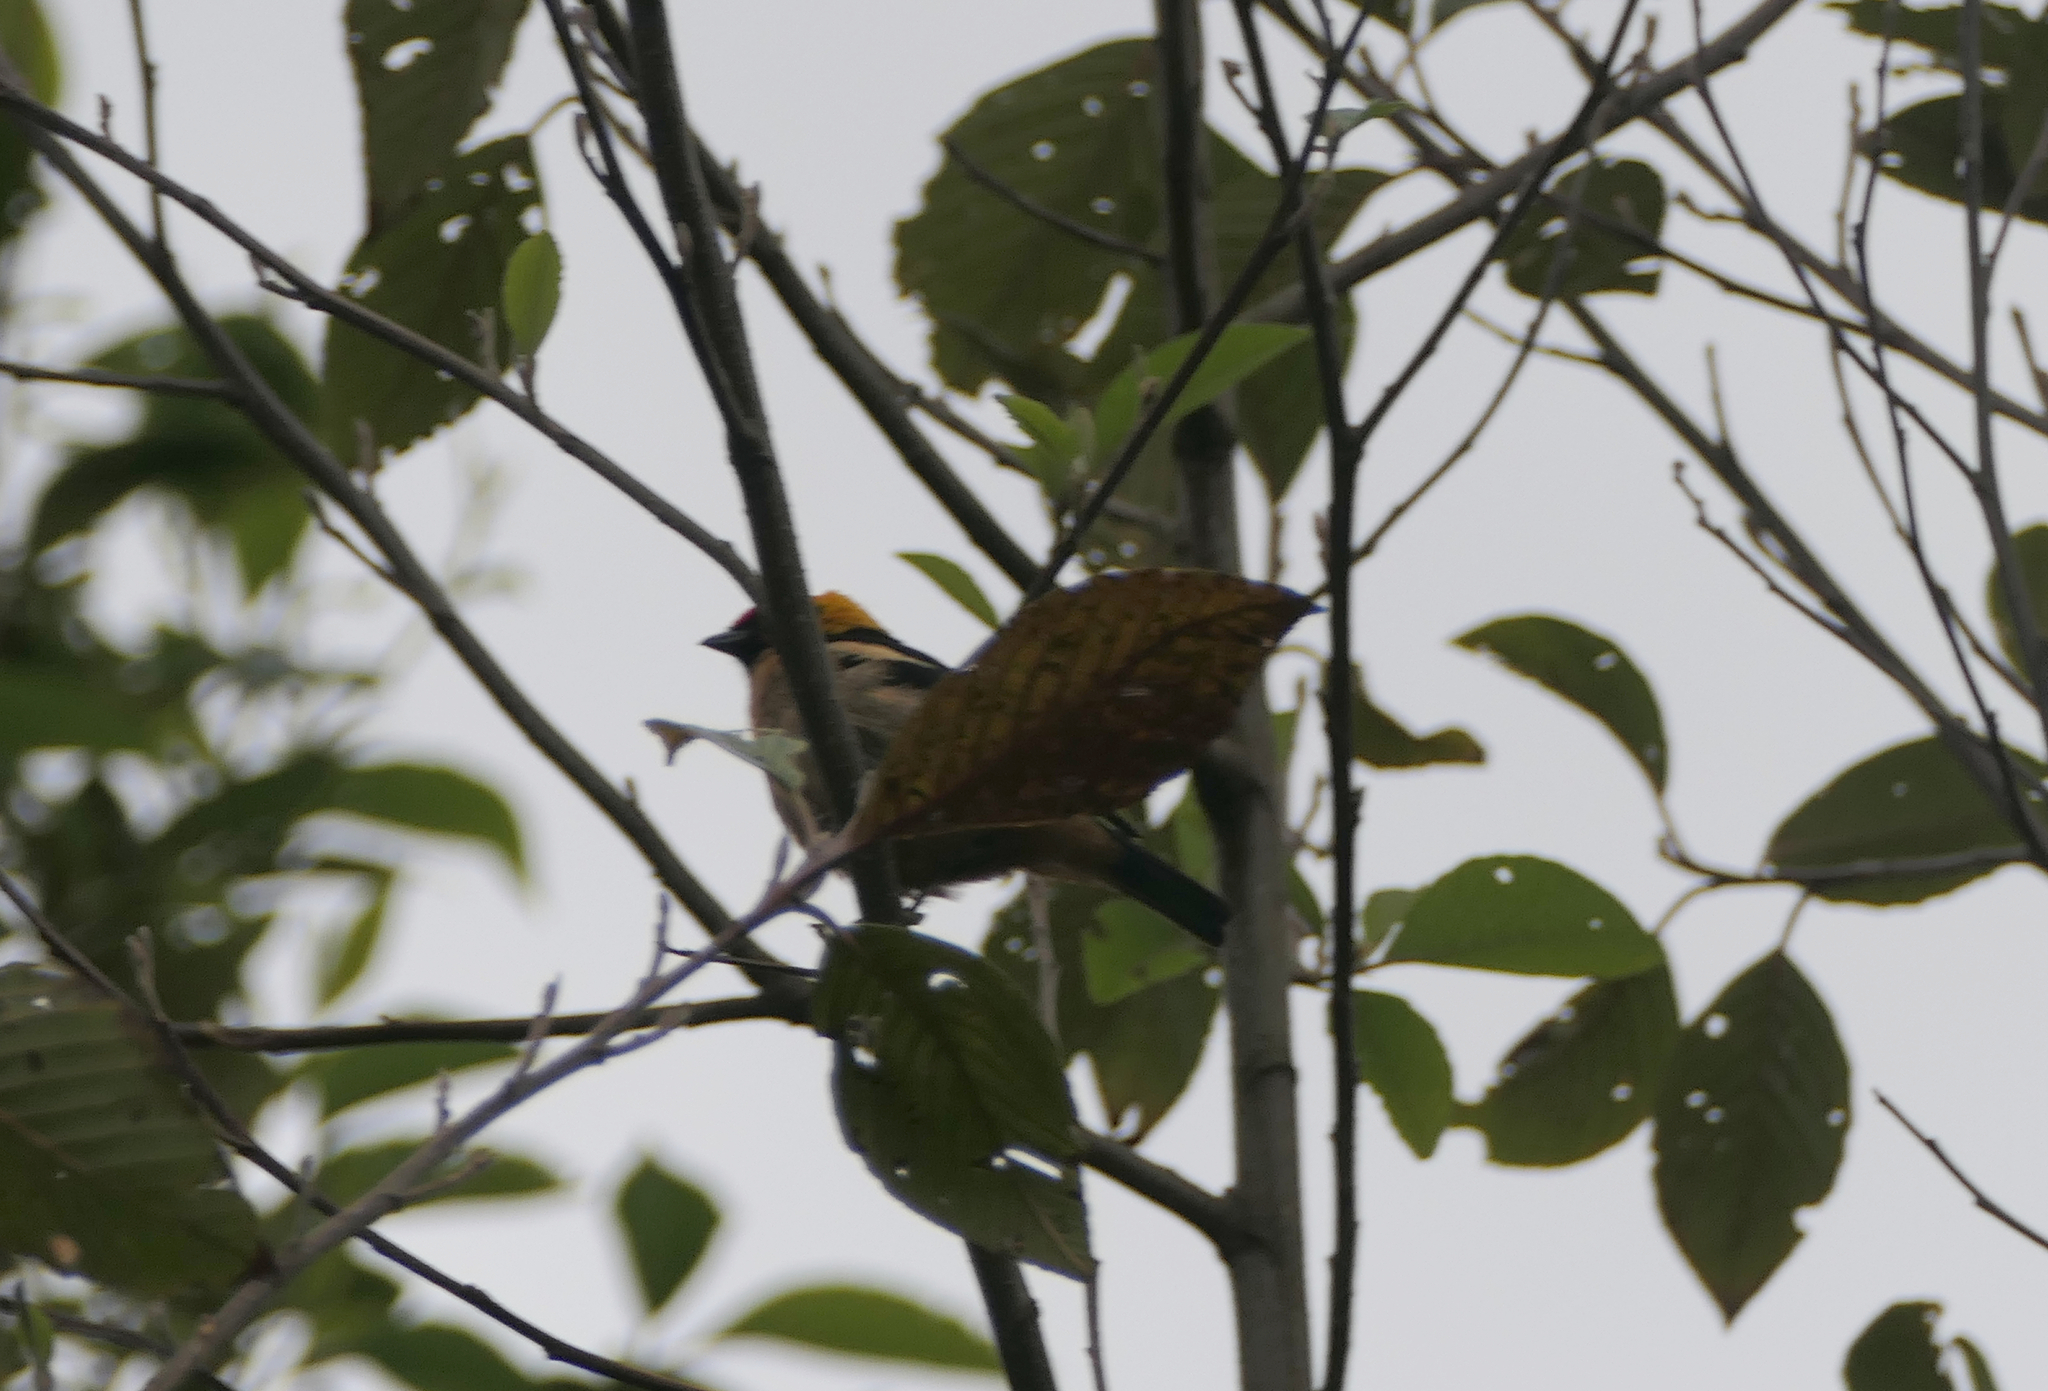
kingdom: Animalia
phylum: Chordata
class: Aves
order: Passeriformes
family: Thraupidae
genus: Tangara
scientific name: Tangara parzudakii
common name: Flame-faced tanager
